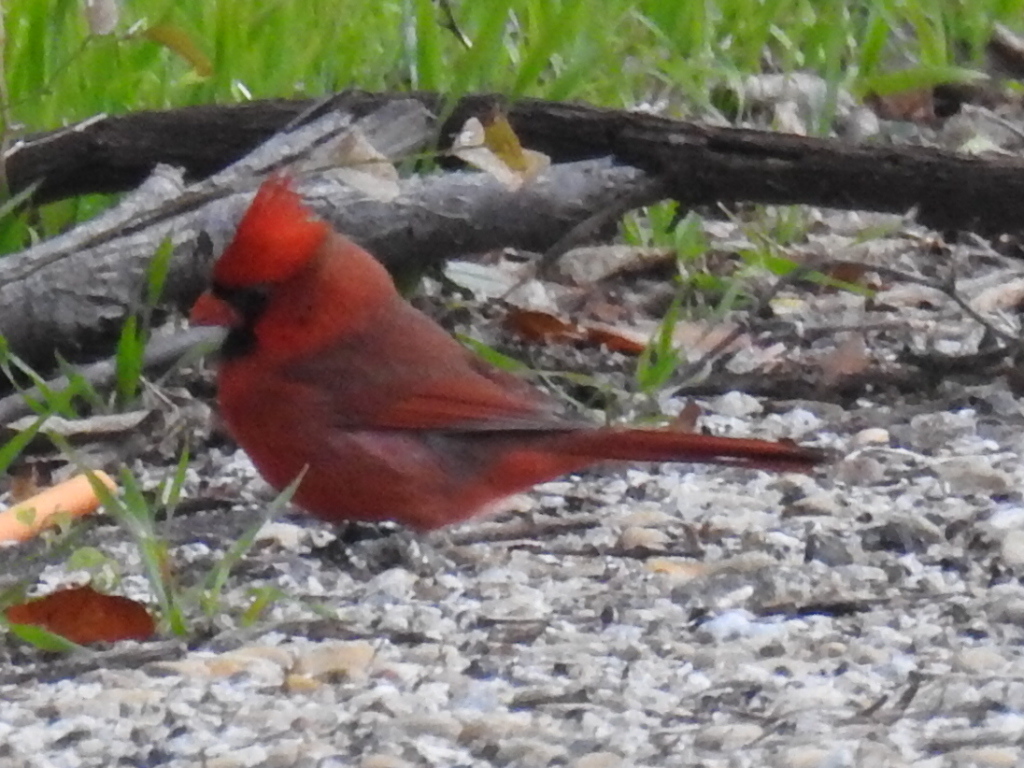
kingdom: Animalia
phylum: Chordata
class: Aves
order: Passeriformes
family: Cardinalidae
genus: Cardinalis
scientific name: Cardinalis cardinalis
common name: Northern cardinal
